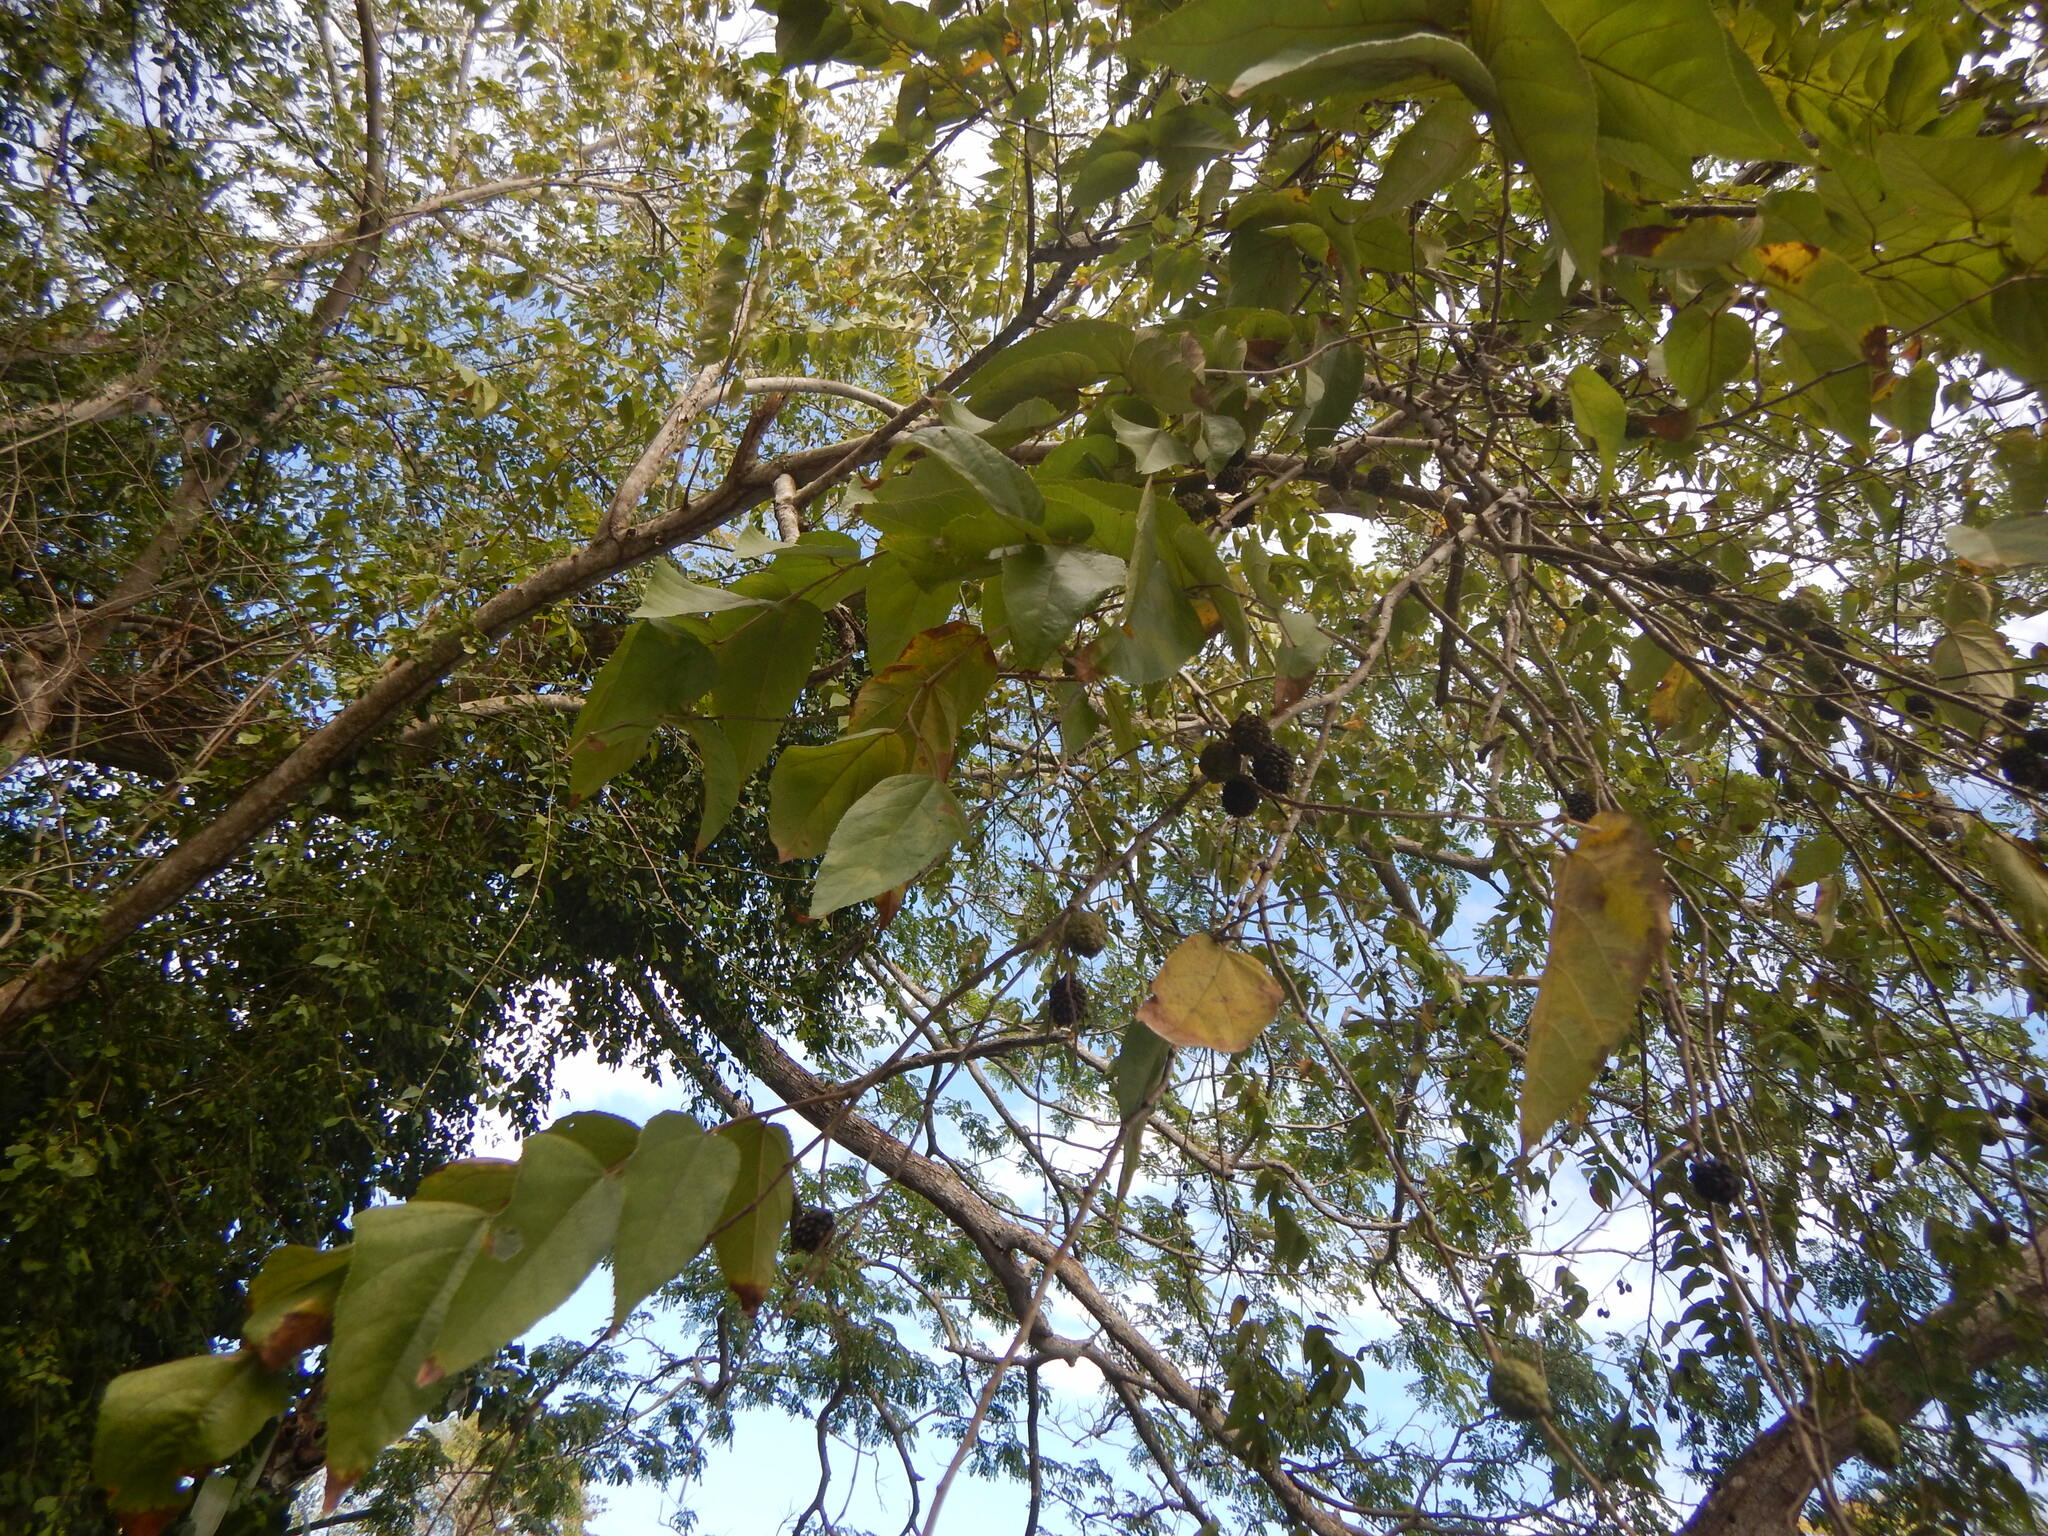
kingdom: Plantae
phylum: Tracheophyta
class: Magnoliopsida
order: Malvales
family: Malvaceae
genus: Guazuma
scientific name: Guazuma ulmifolia
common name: Bastard-cedar
